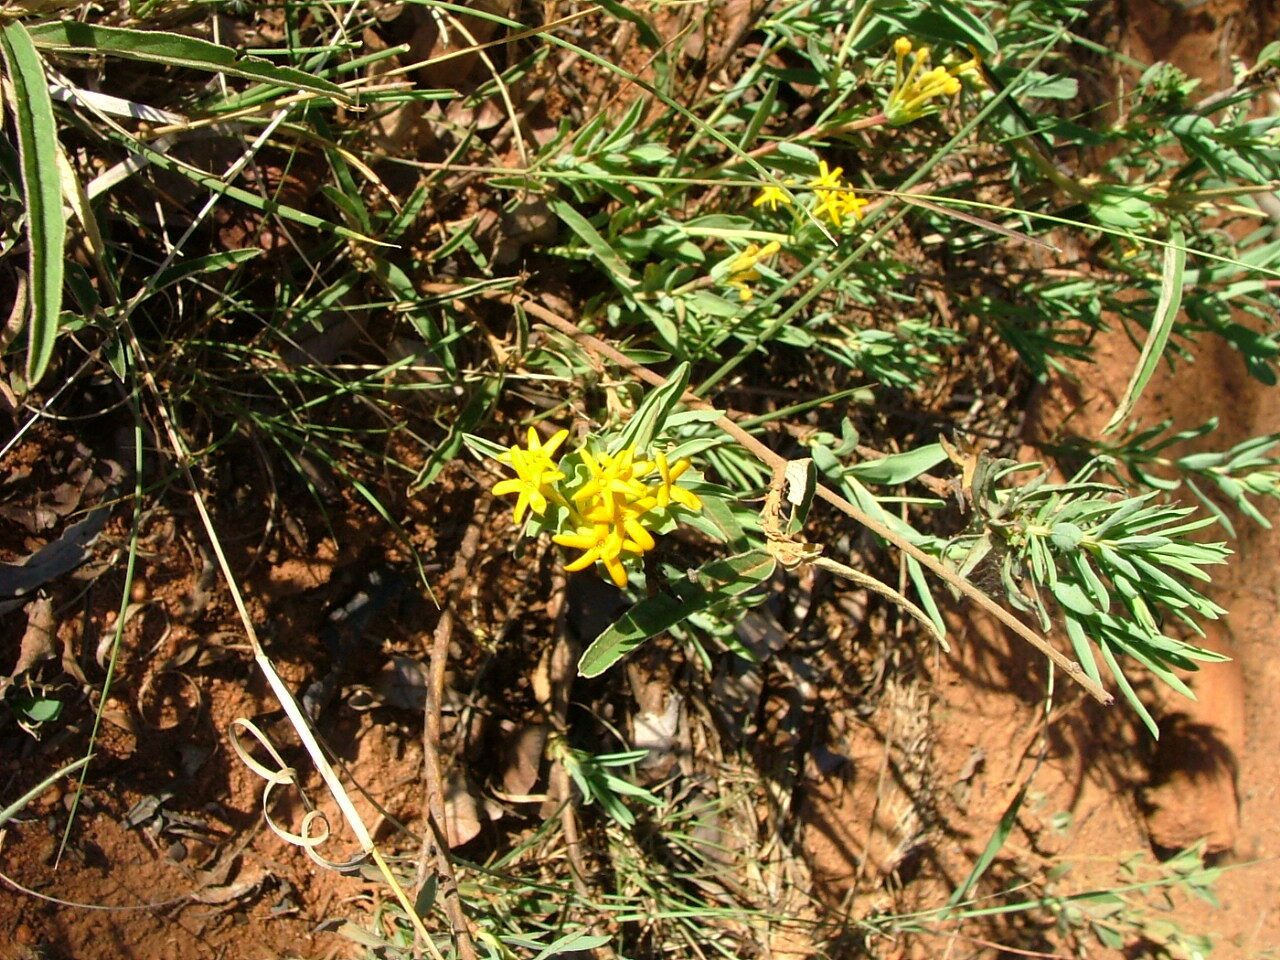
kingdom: Plantae
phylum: Tracheophyta
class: Magnoliopsida
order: Malvales
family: Thymelaeaceae
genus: Gnidia
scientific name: Gnidia capitata
